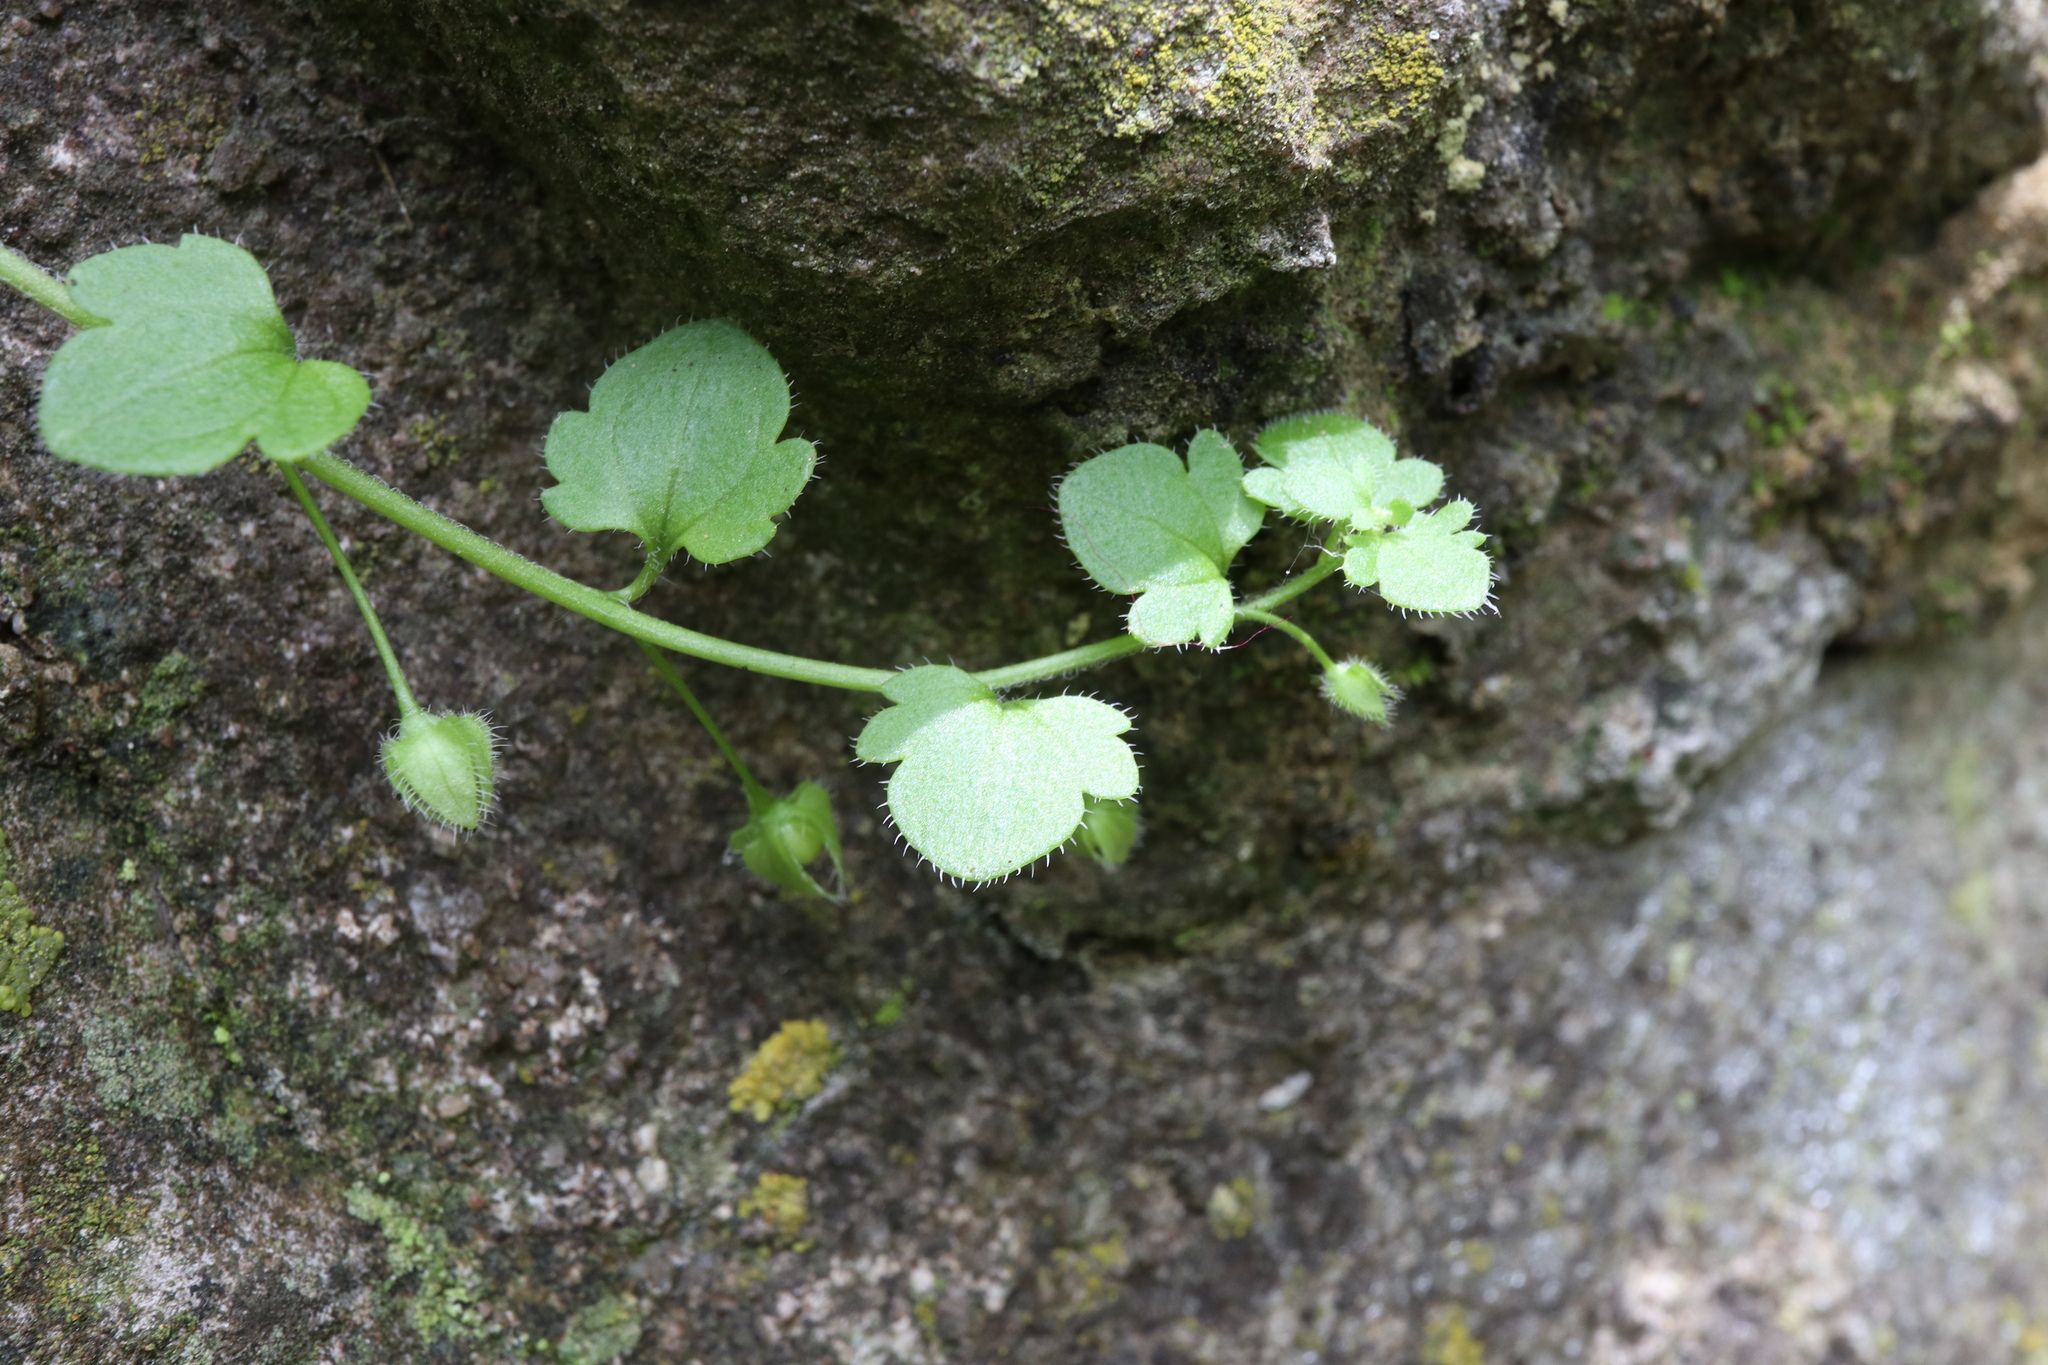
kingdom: Plantae
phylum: Tracheophyta
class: Magnoliopsida
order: Lamiales
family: Plantaginaceae
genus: Veronica
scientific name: Veronica hederifolia
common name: Ivy-leaved speedwell
